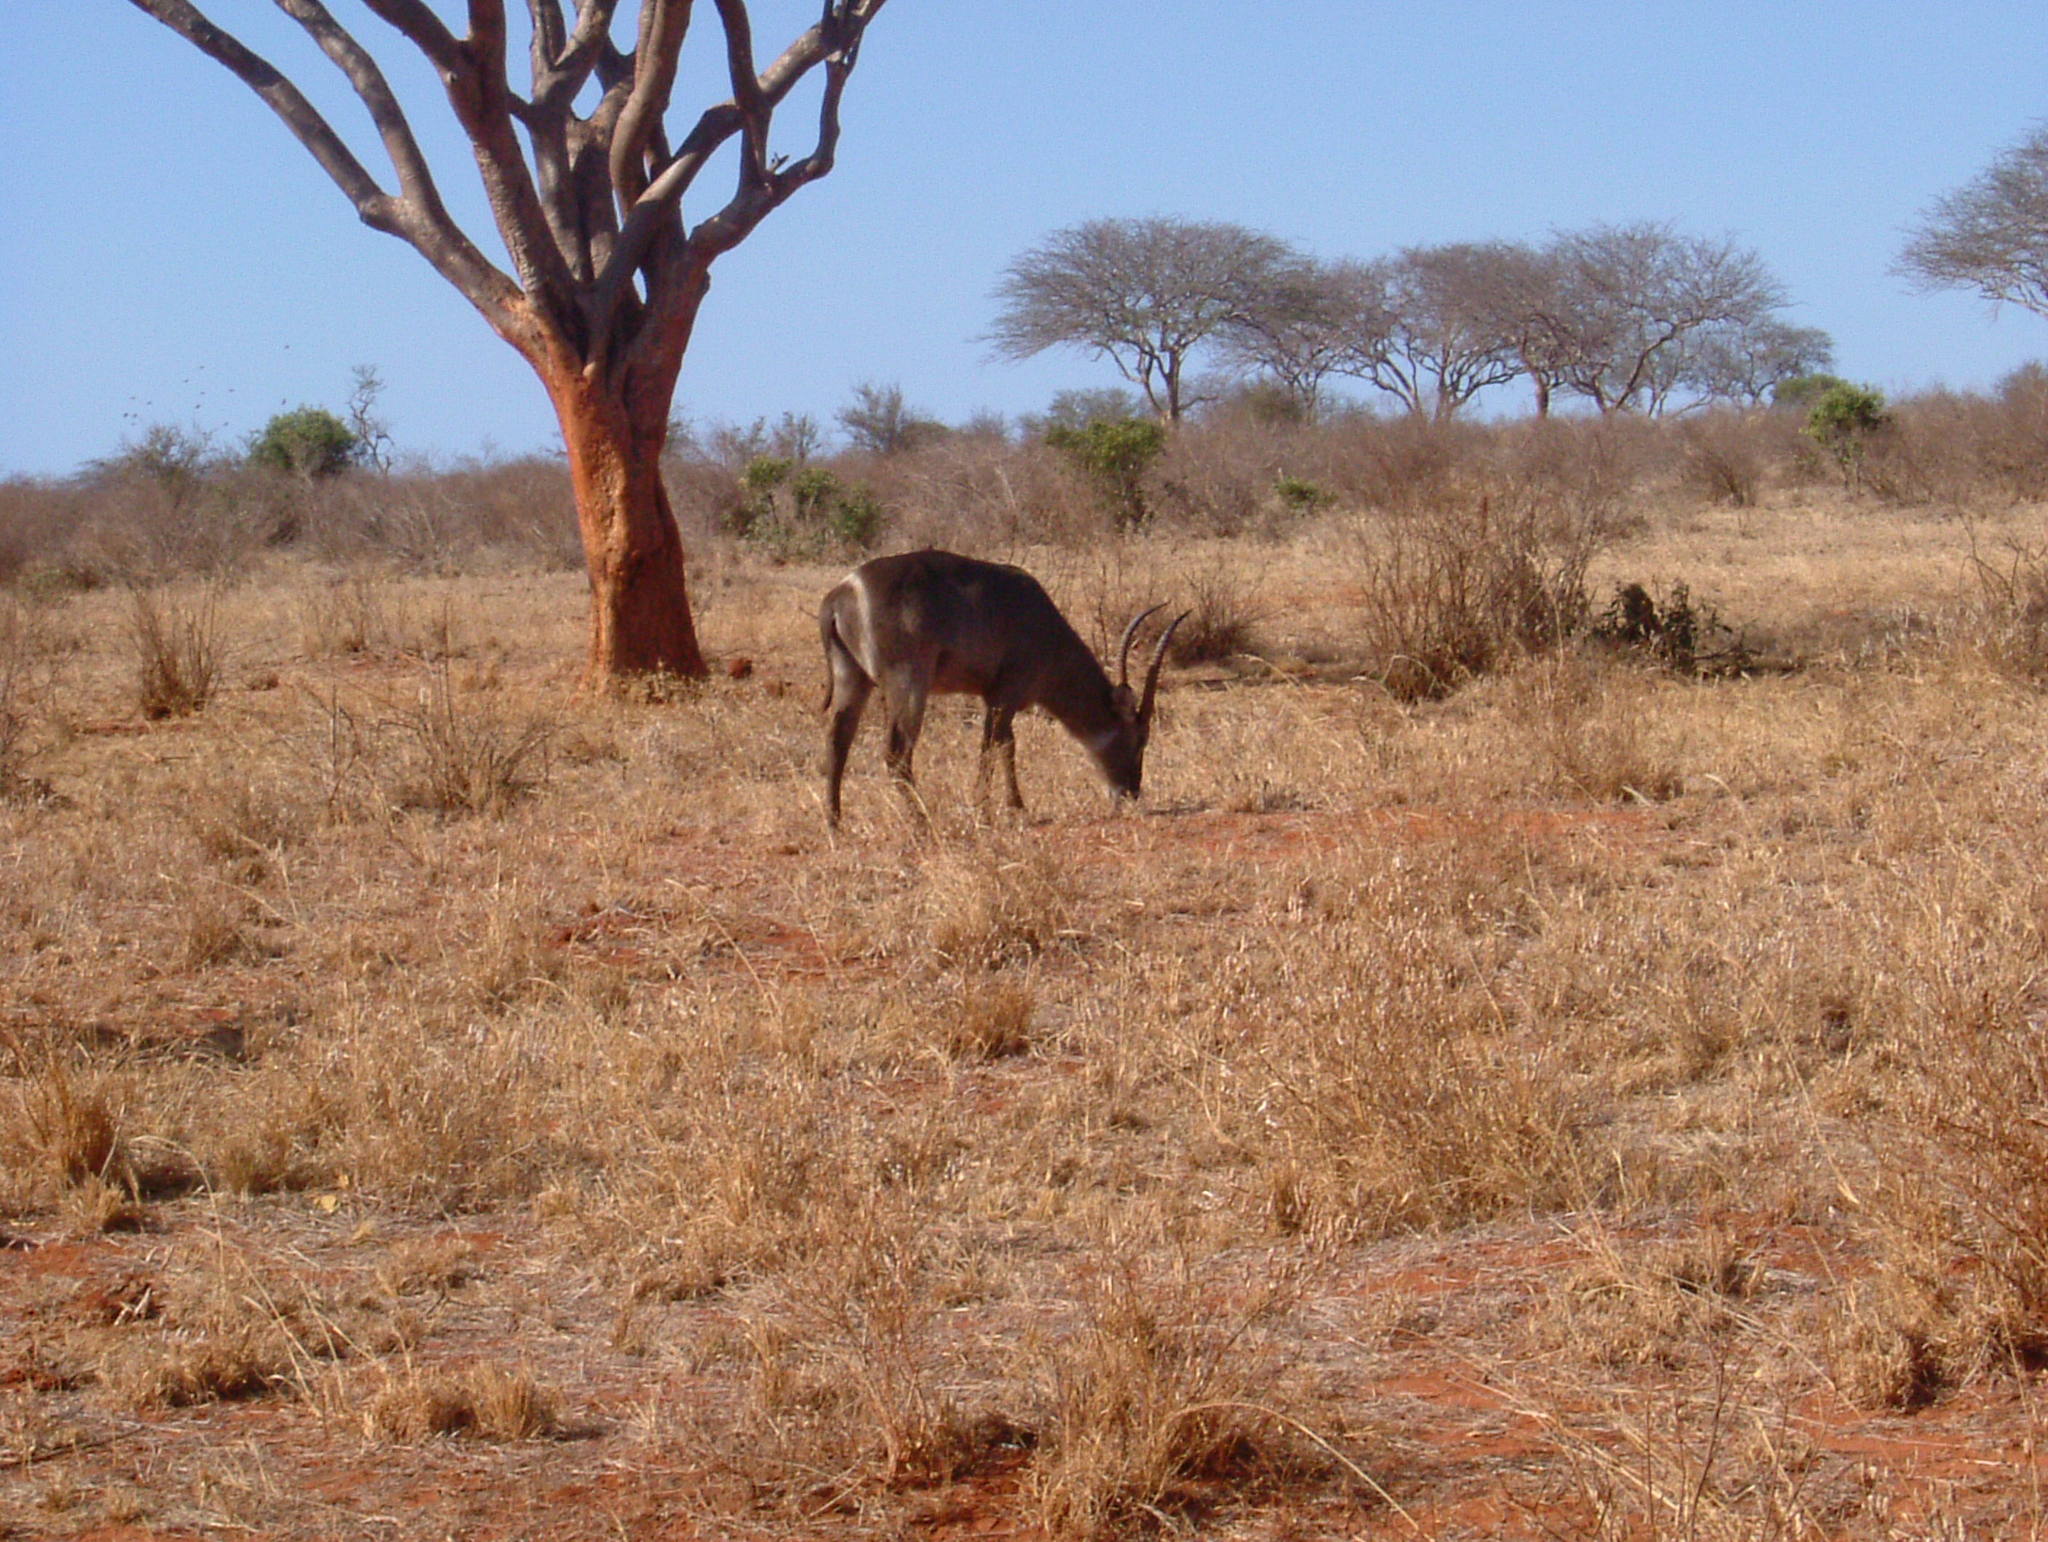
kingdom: Animalia
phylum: Chordata
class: Mammalia
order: Artiodactyla
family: Bovidae
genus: Kobus
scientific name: Kobus ellipsiprymnus
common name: Waterbuck
